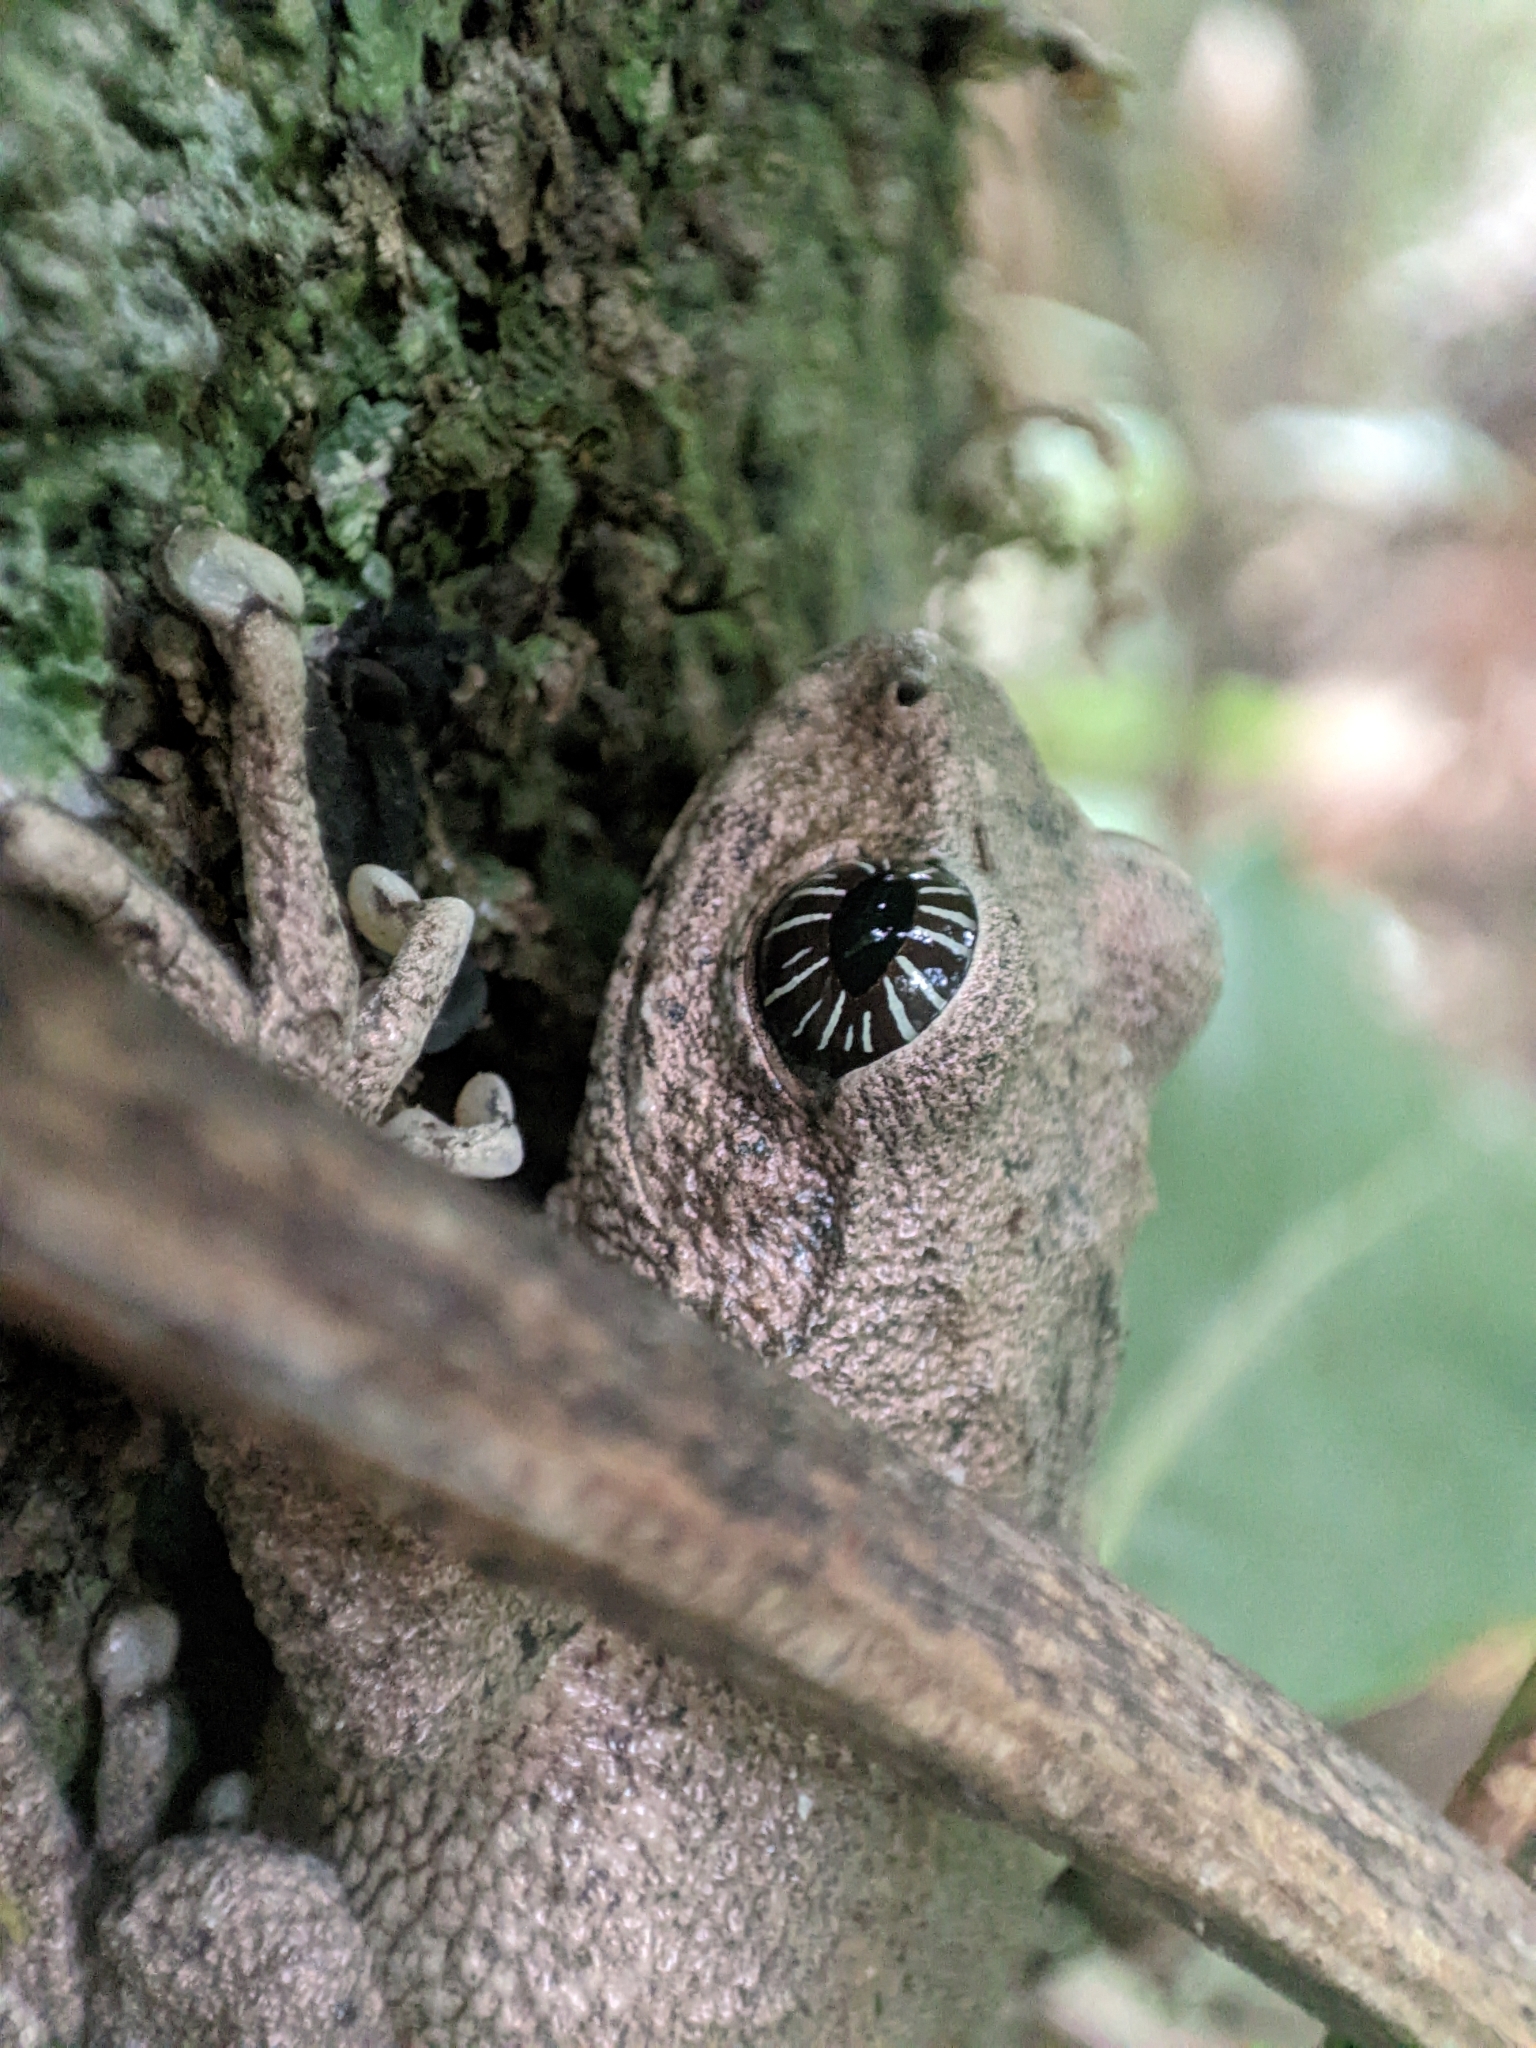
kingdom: Animalia
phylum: Chordata
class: Amphibia
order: Anura
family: Rhacophoridae
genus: Raorchestes
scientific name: Raorchestes signatus
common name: Cross-backed bush frog
